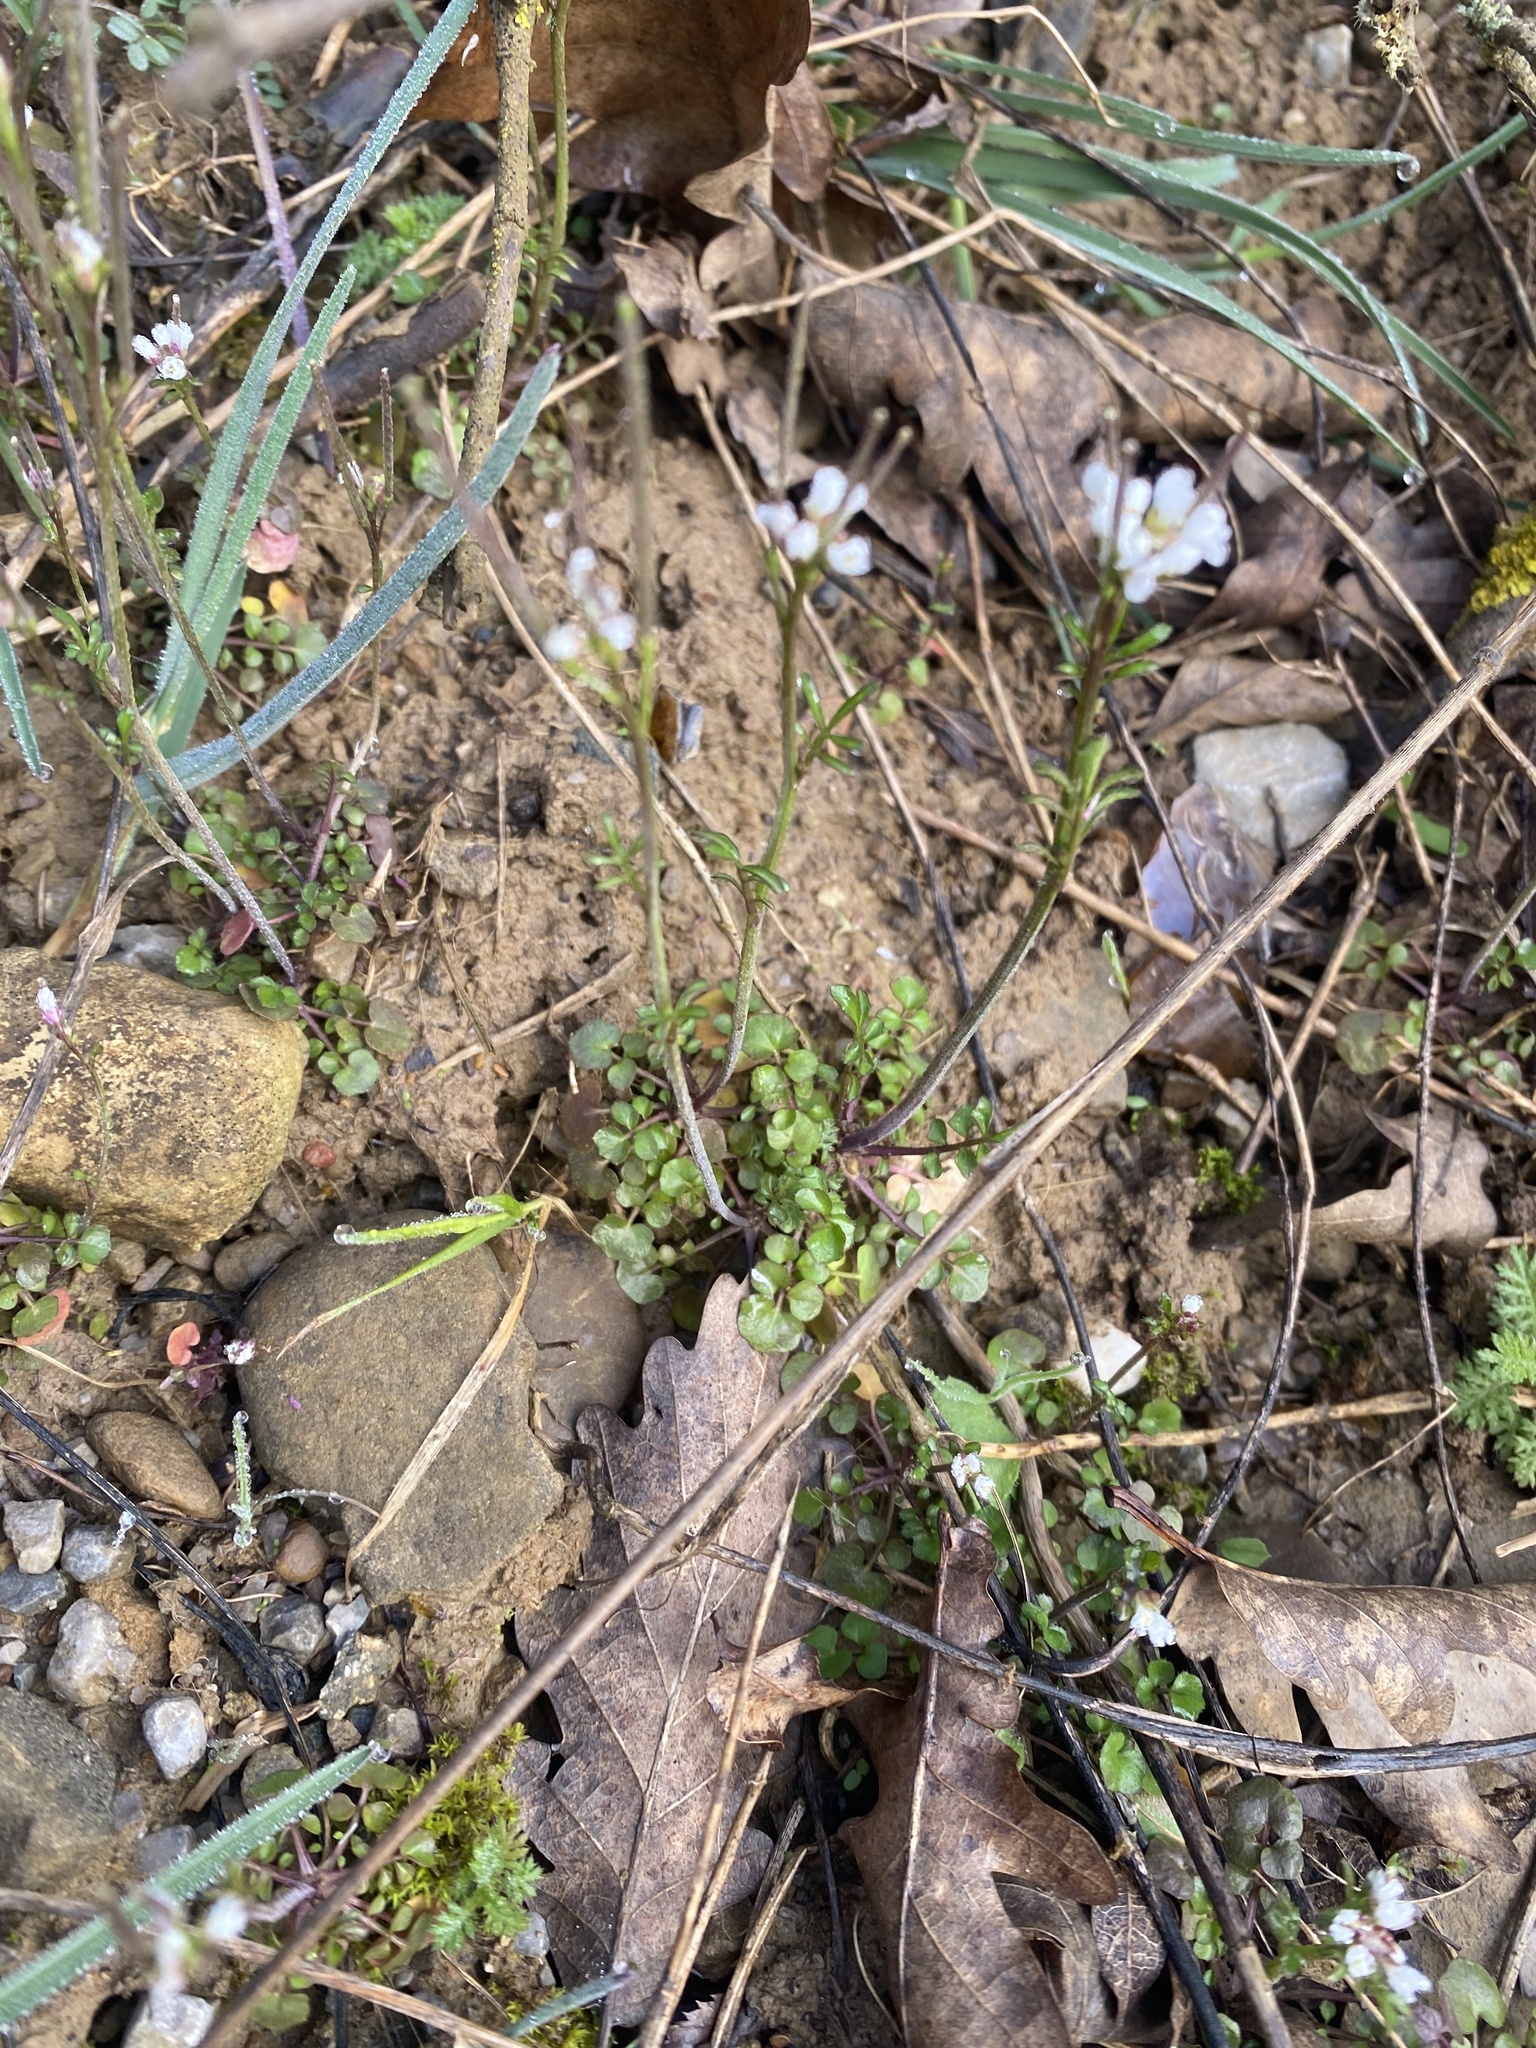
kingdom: Plantae
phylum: Tracheophyta
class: Magnoliopsida
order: Brassicales
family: Brassicaceae
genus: Cardamine
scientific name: Cardamine hirsuta
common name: Hairy bittercress
